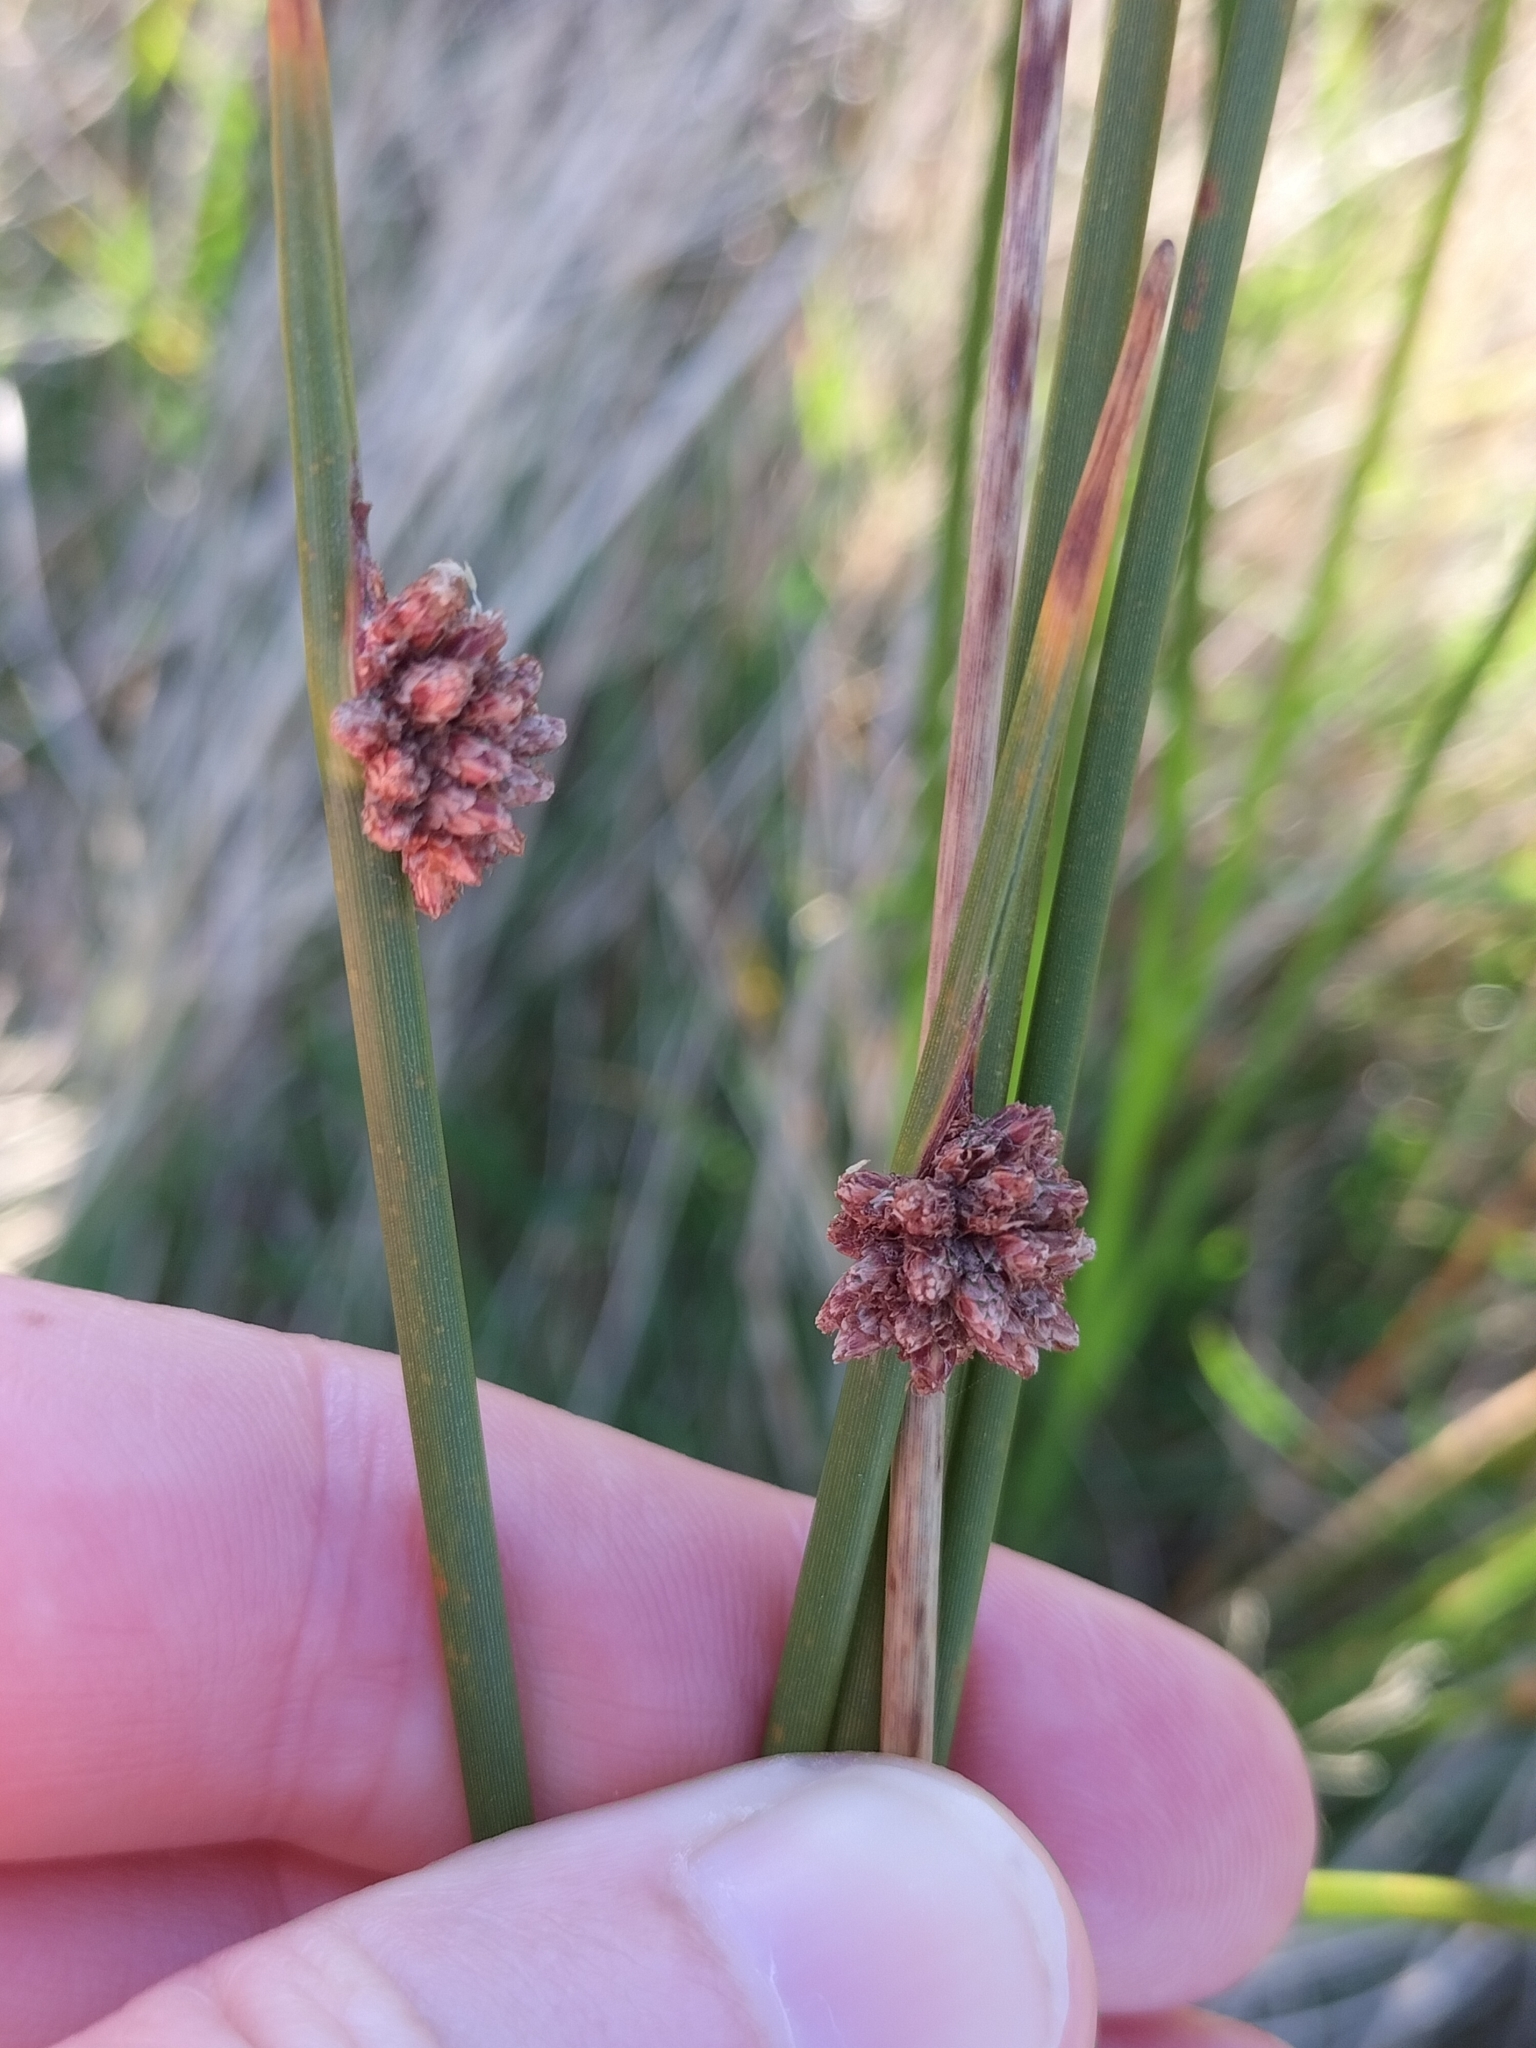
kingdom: Plantae
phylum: Tracheophyta
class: Liliopsida
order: Poales
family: Cyperaceae
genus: Ficinia
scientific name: Ficinia nodosa
